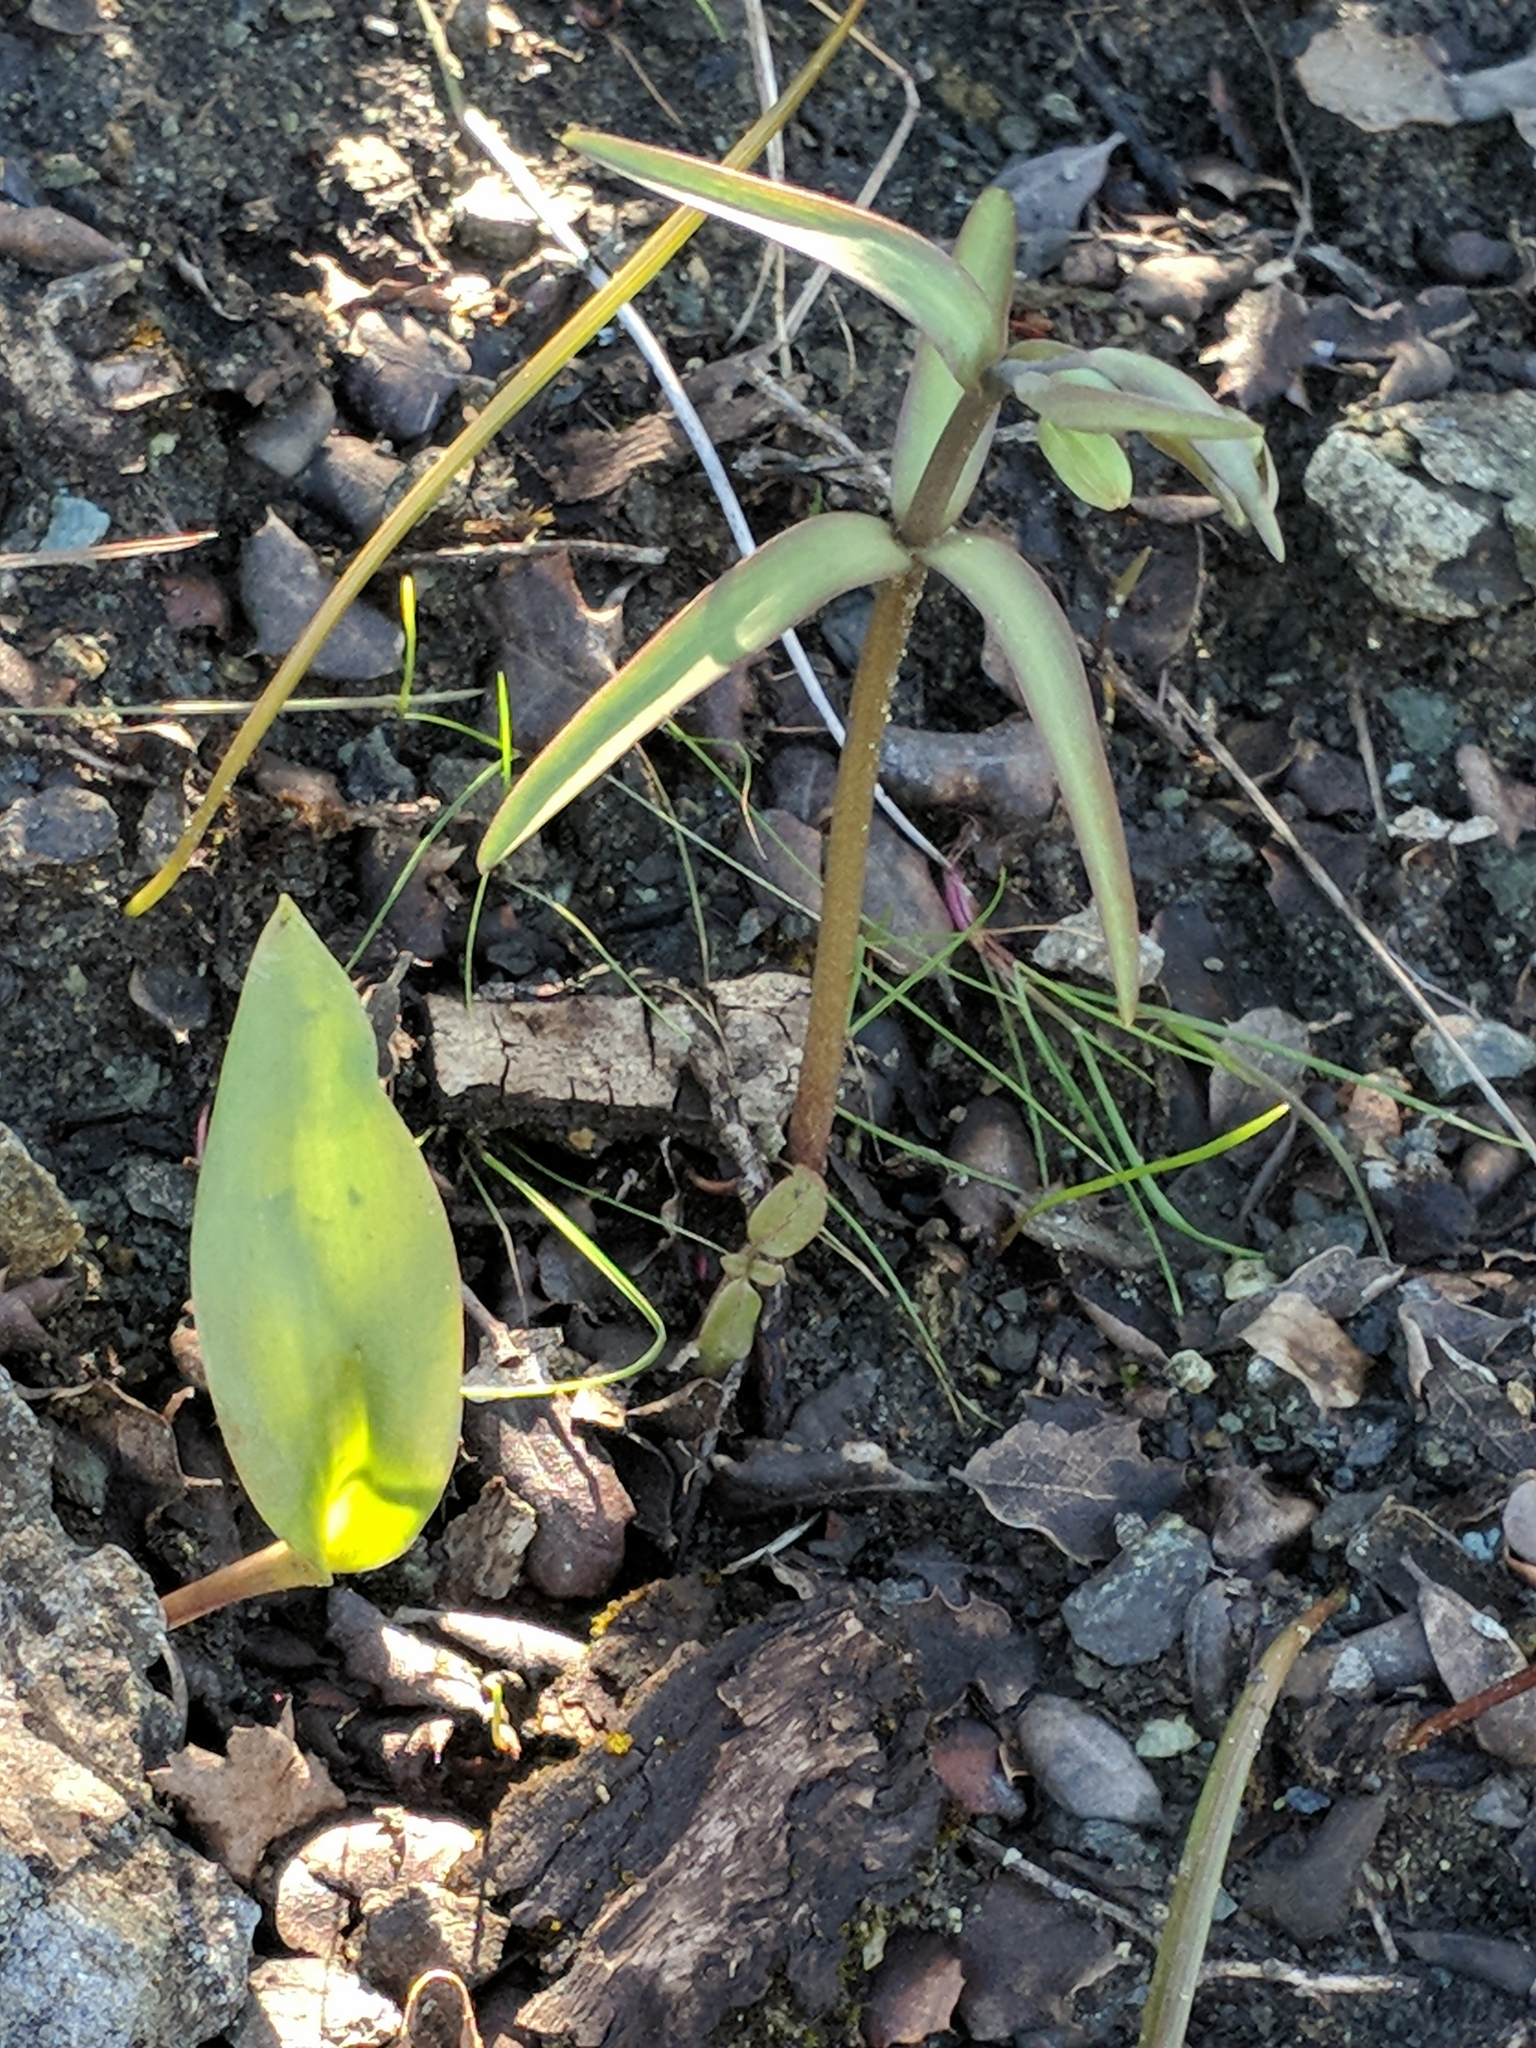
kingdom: Plantae
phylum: Tracheophyta
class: Liliopsida
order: Liliales
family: Liliaceae
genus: Fritillaria
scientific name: Fritillaria affinis
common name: Ojai fritillary
